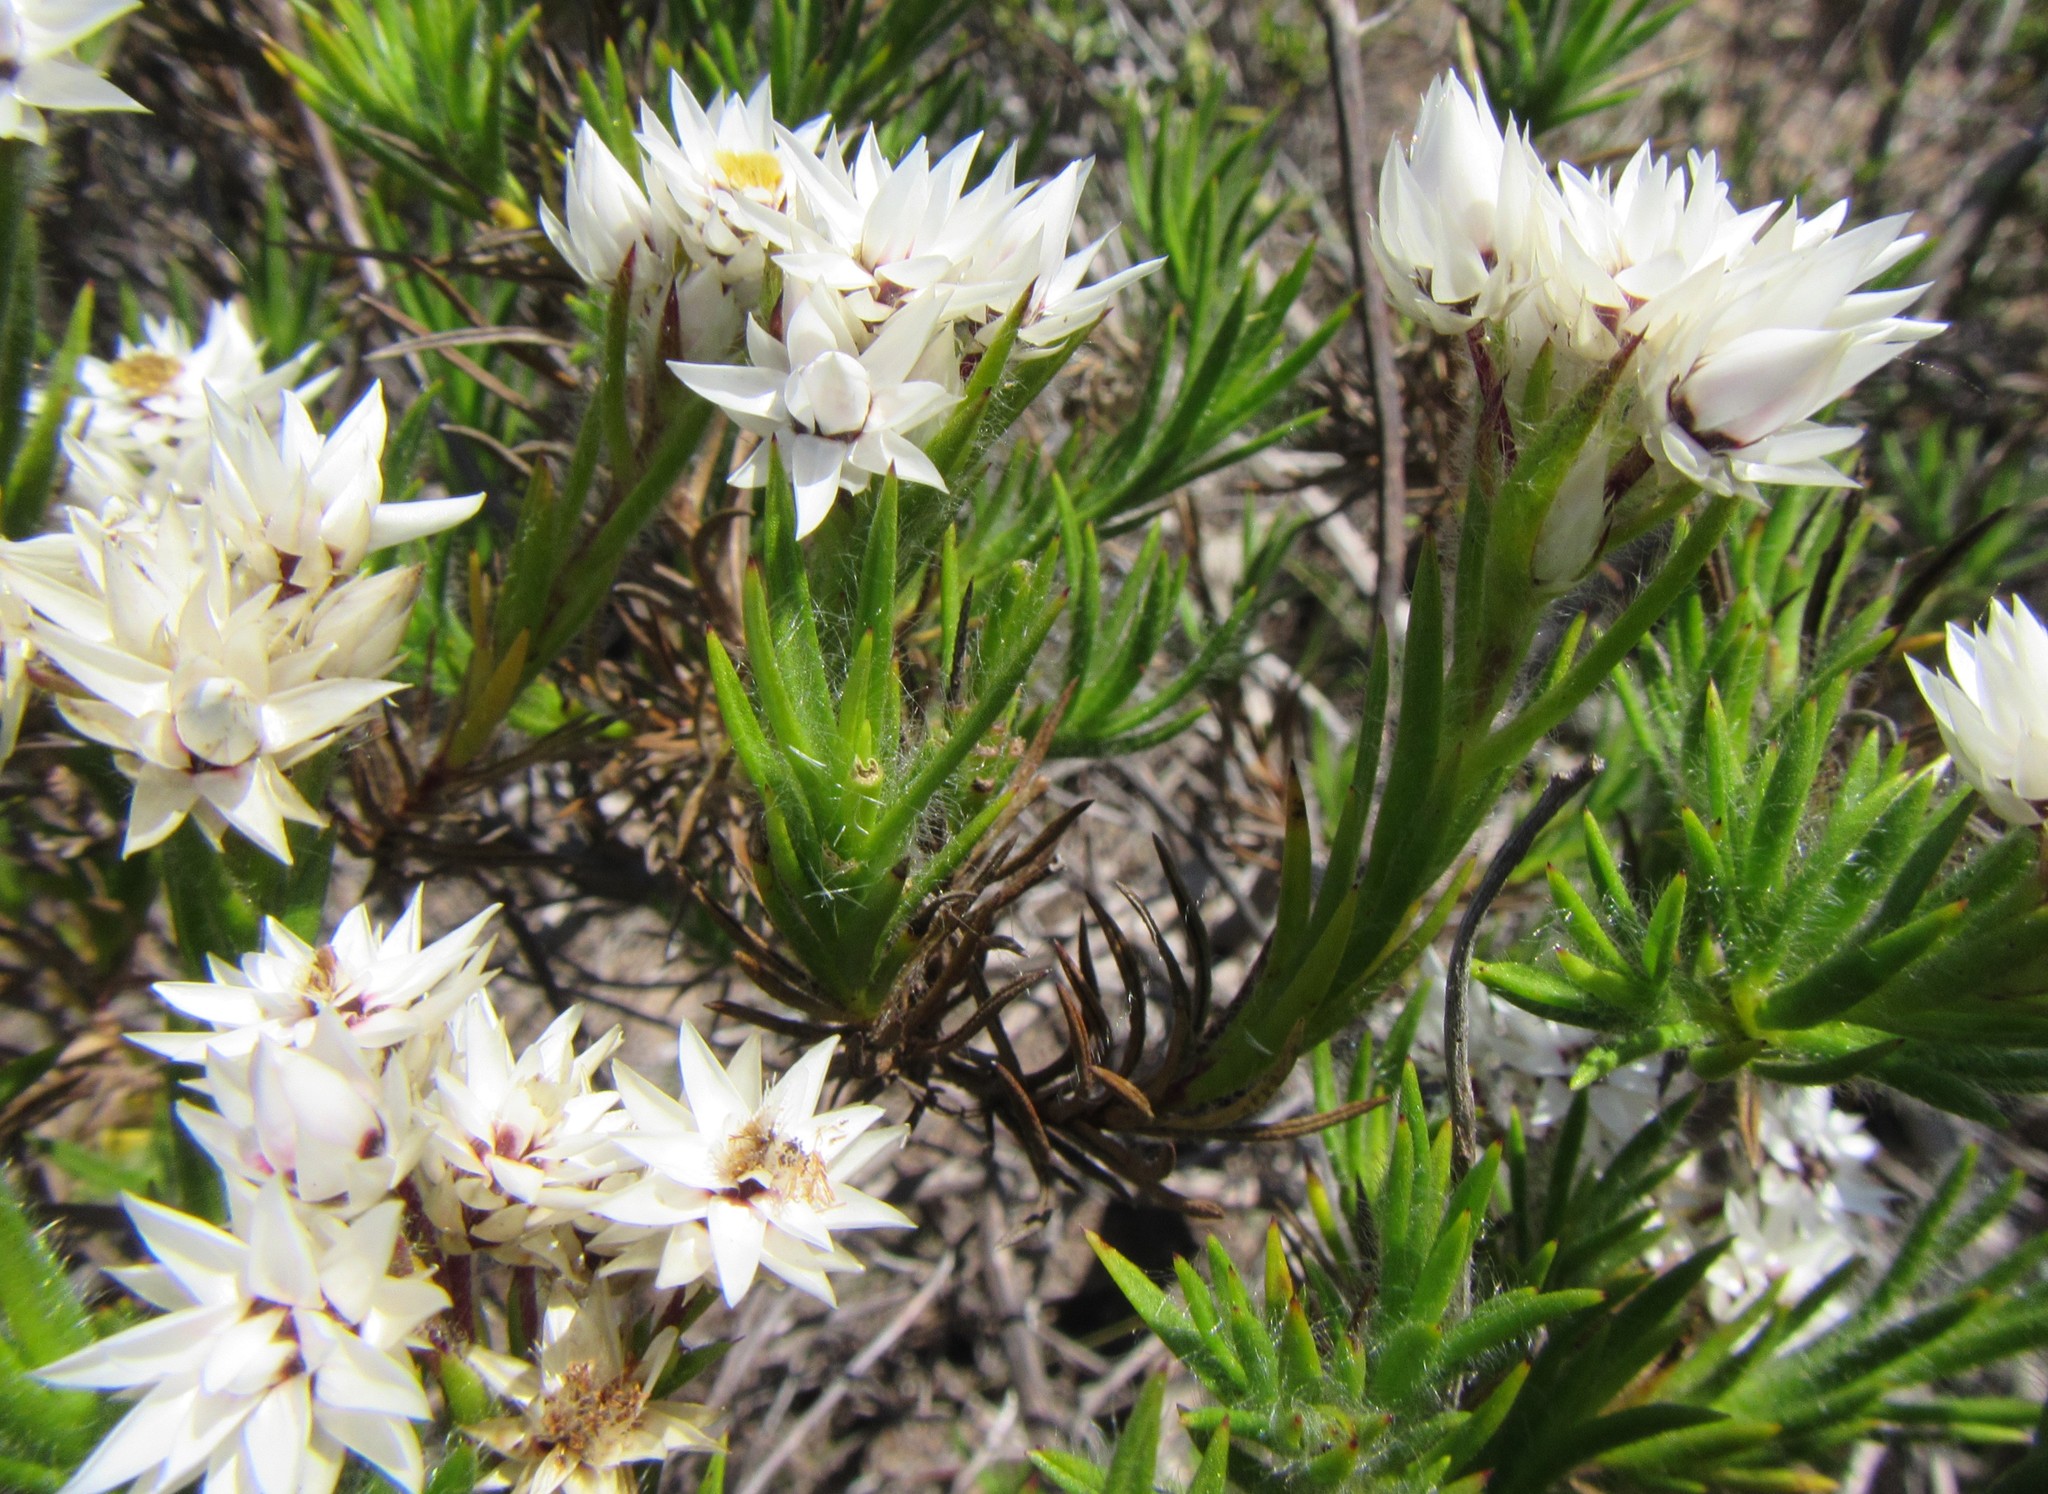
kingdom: Plantae
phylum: Tracheophyta
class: Magnoliopsida
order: Asterales
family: Asteraceae
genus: Achyranthemum
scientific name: Achyranthemum striatum
